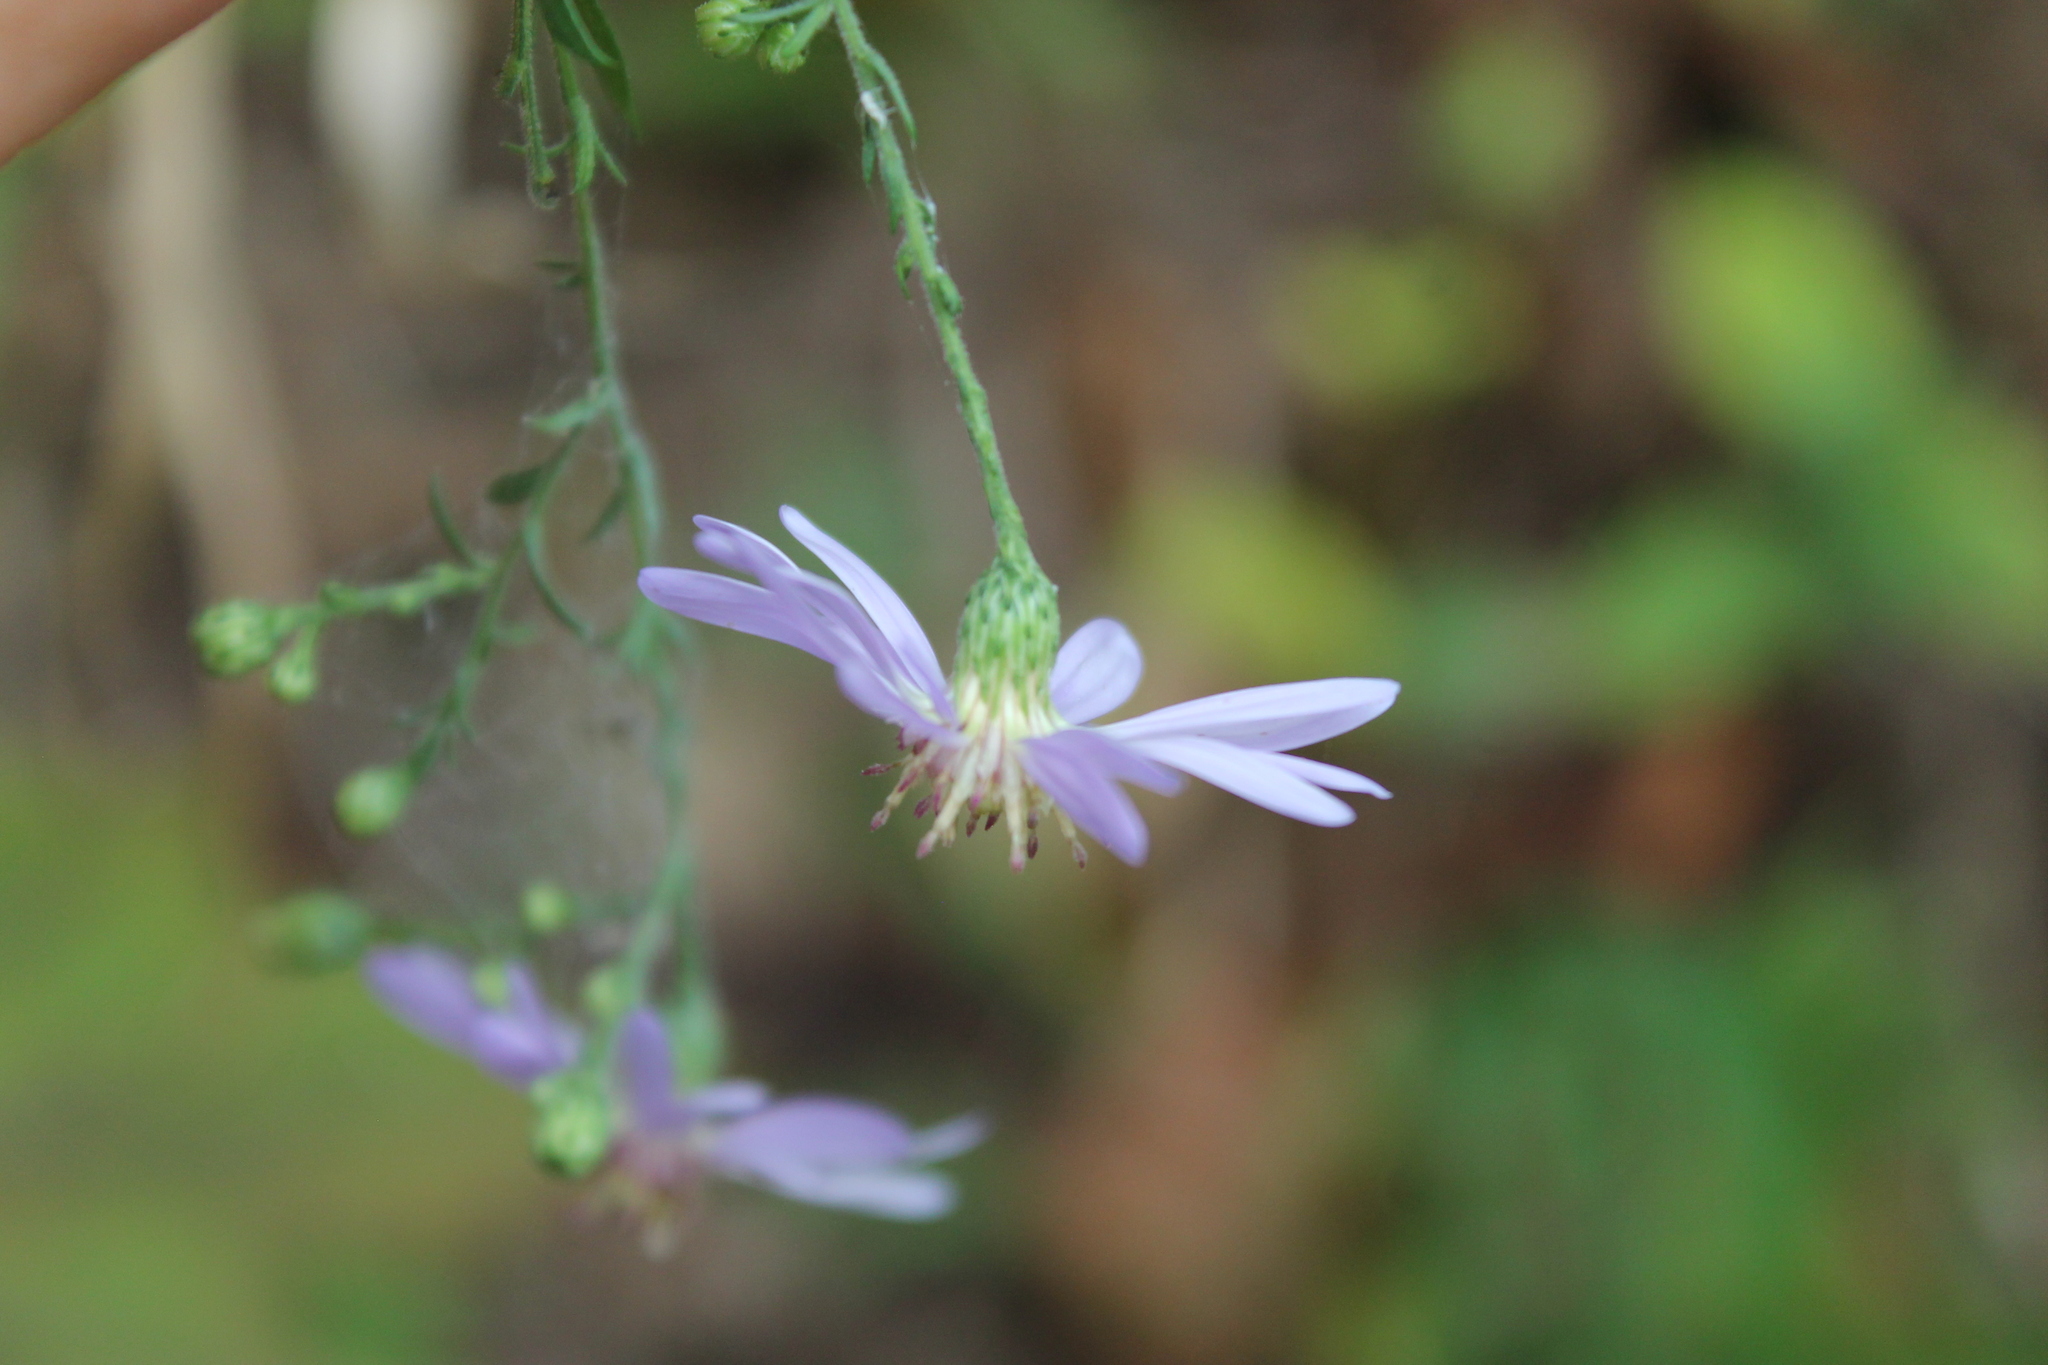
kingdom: Plantae
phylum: Tracheophyta
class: Magnoliopsida
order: Asterales
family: Asteraceae
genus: Symphyotrichum
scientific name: Symphyotrichum shortii
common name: Short's aster
